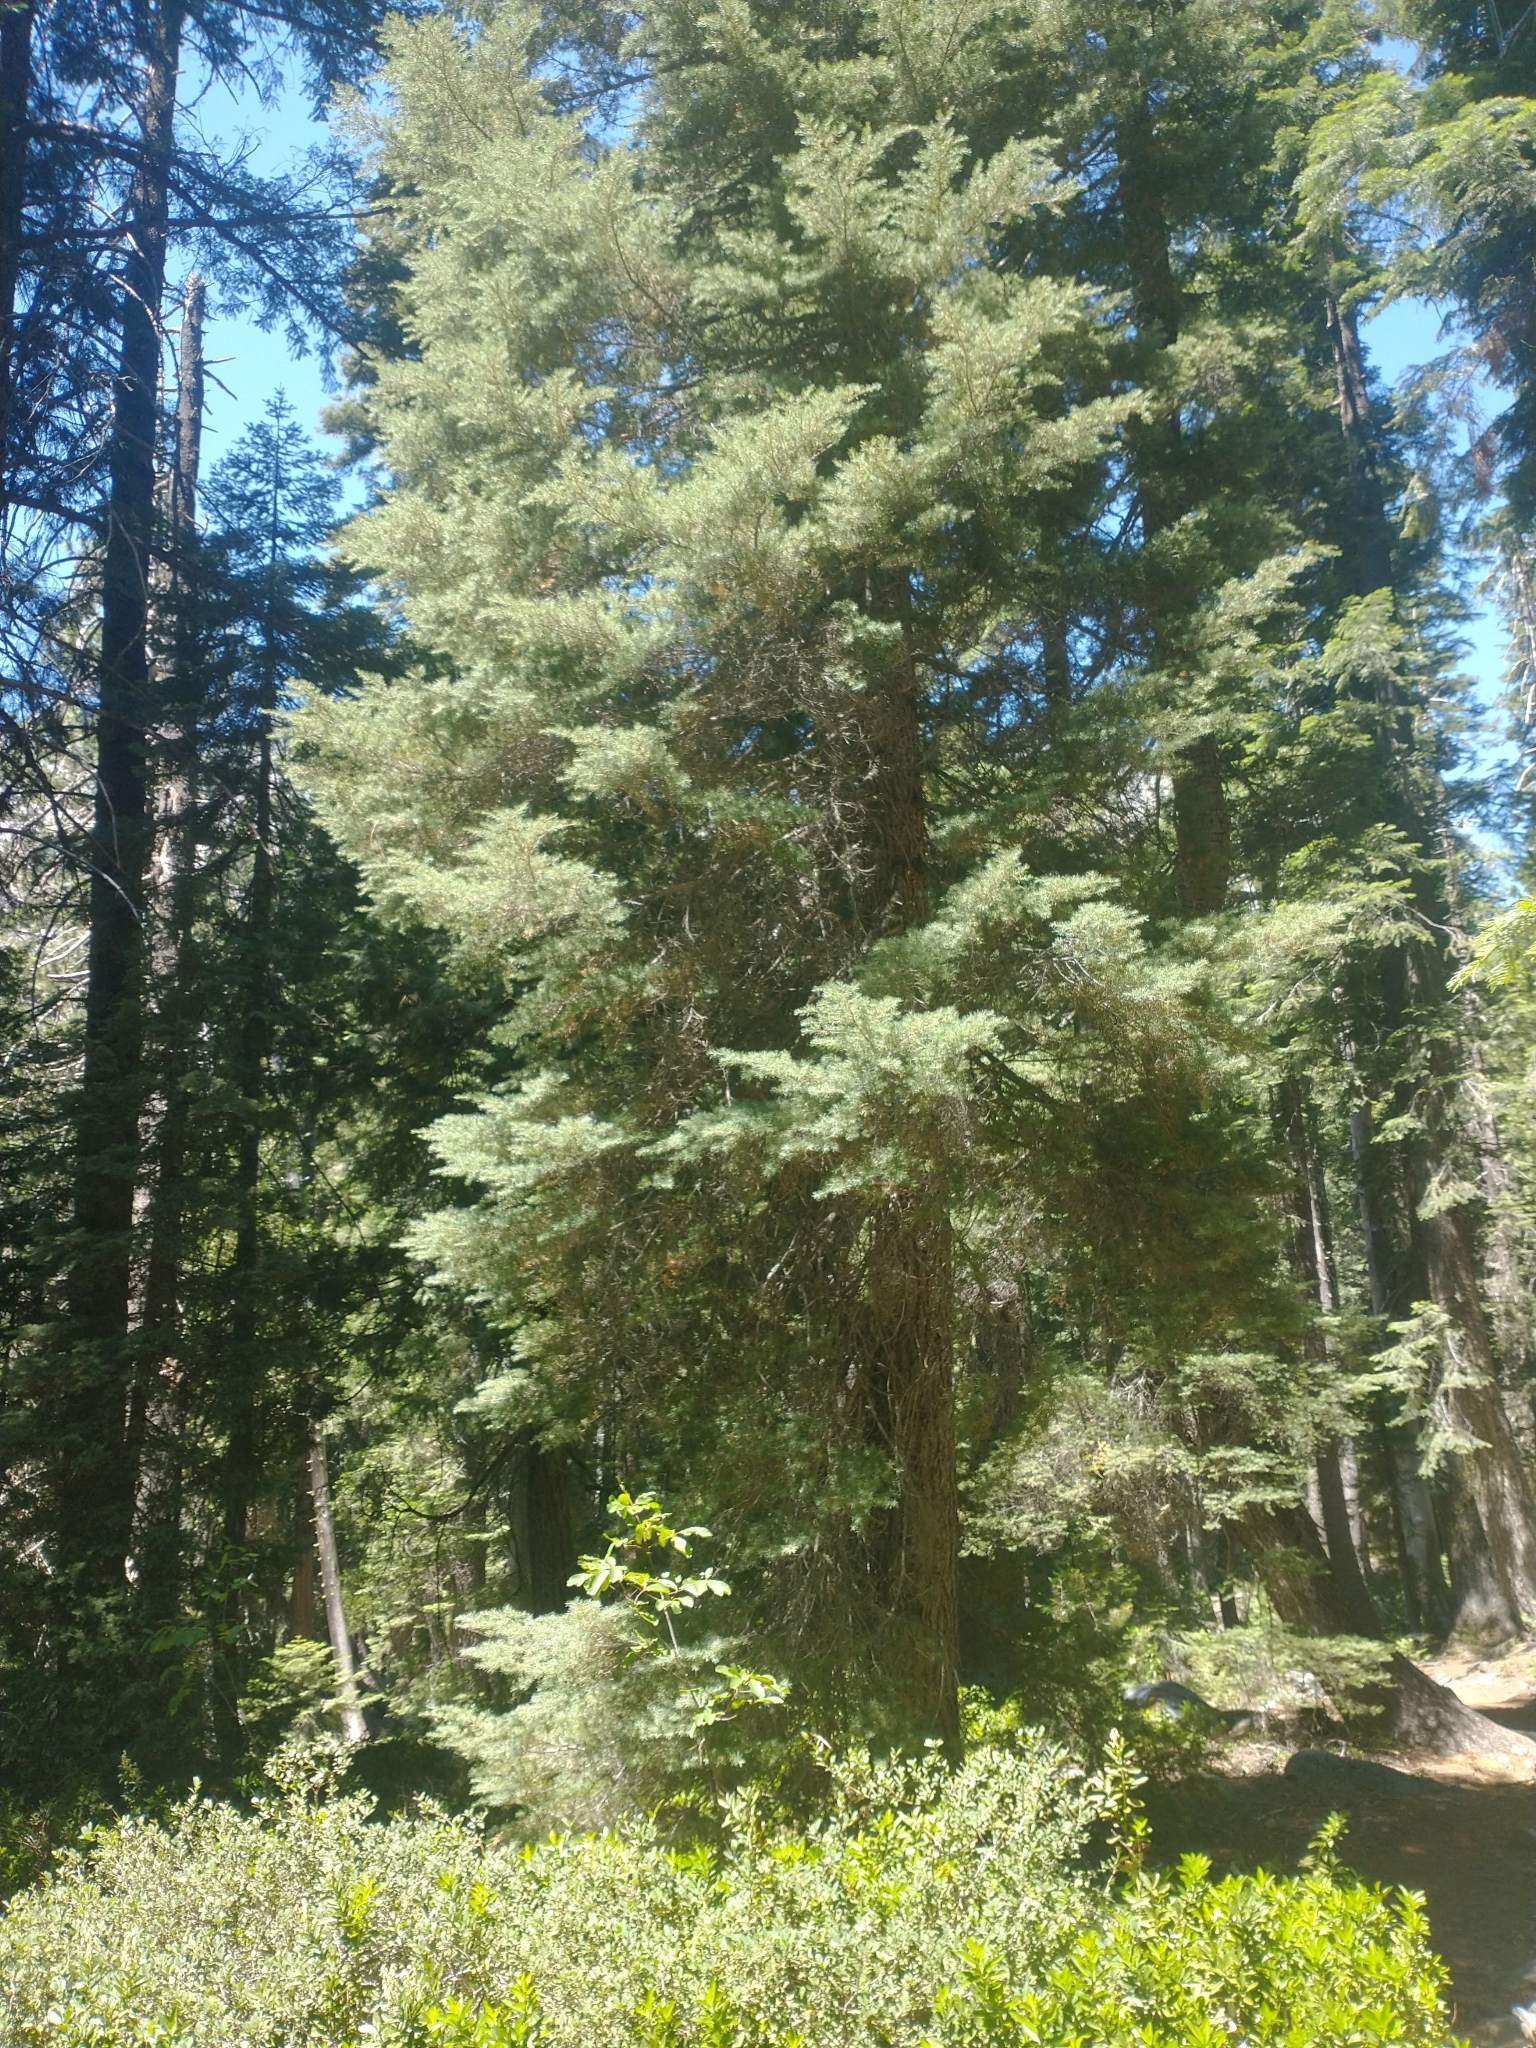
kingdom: Plantae
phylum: Tracheophyta
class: Pinopsida
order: Pinales
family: Pinaceae
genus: Tsuga
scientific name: Tsuga mertensiana
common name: Mountain hemlock
